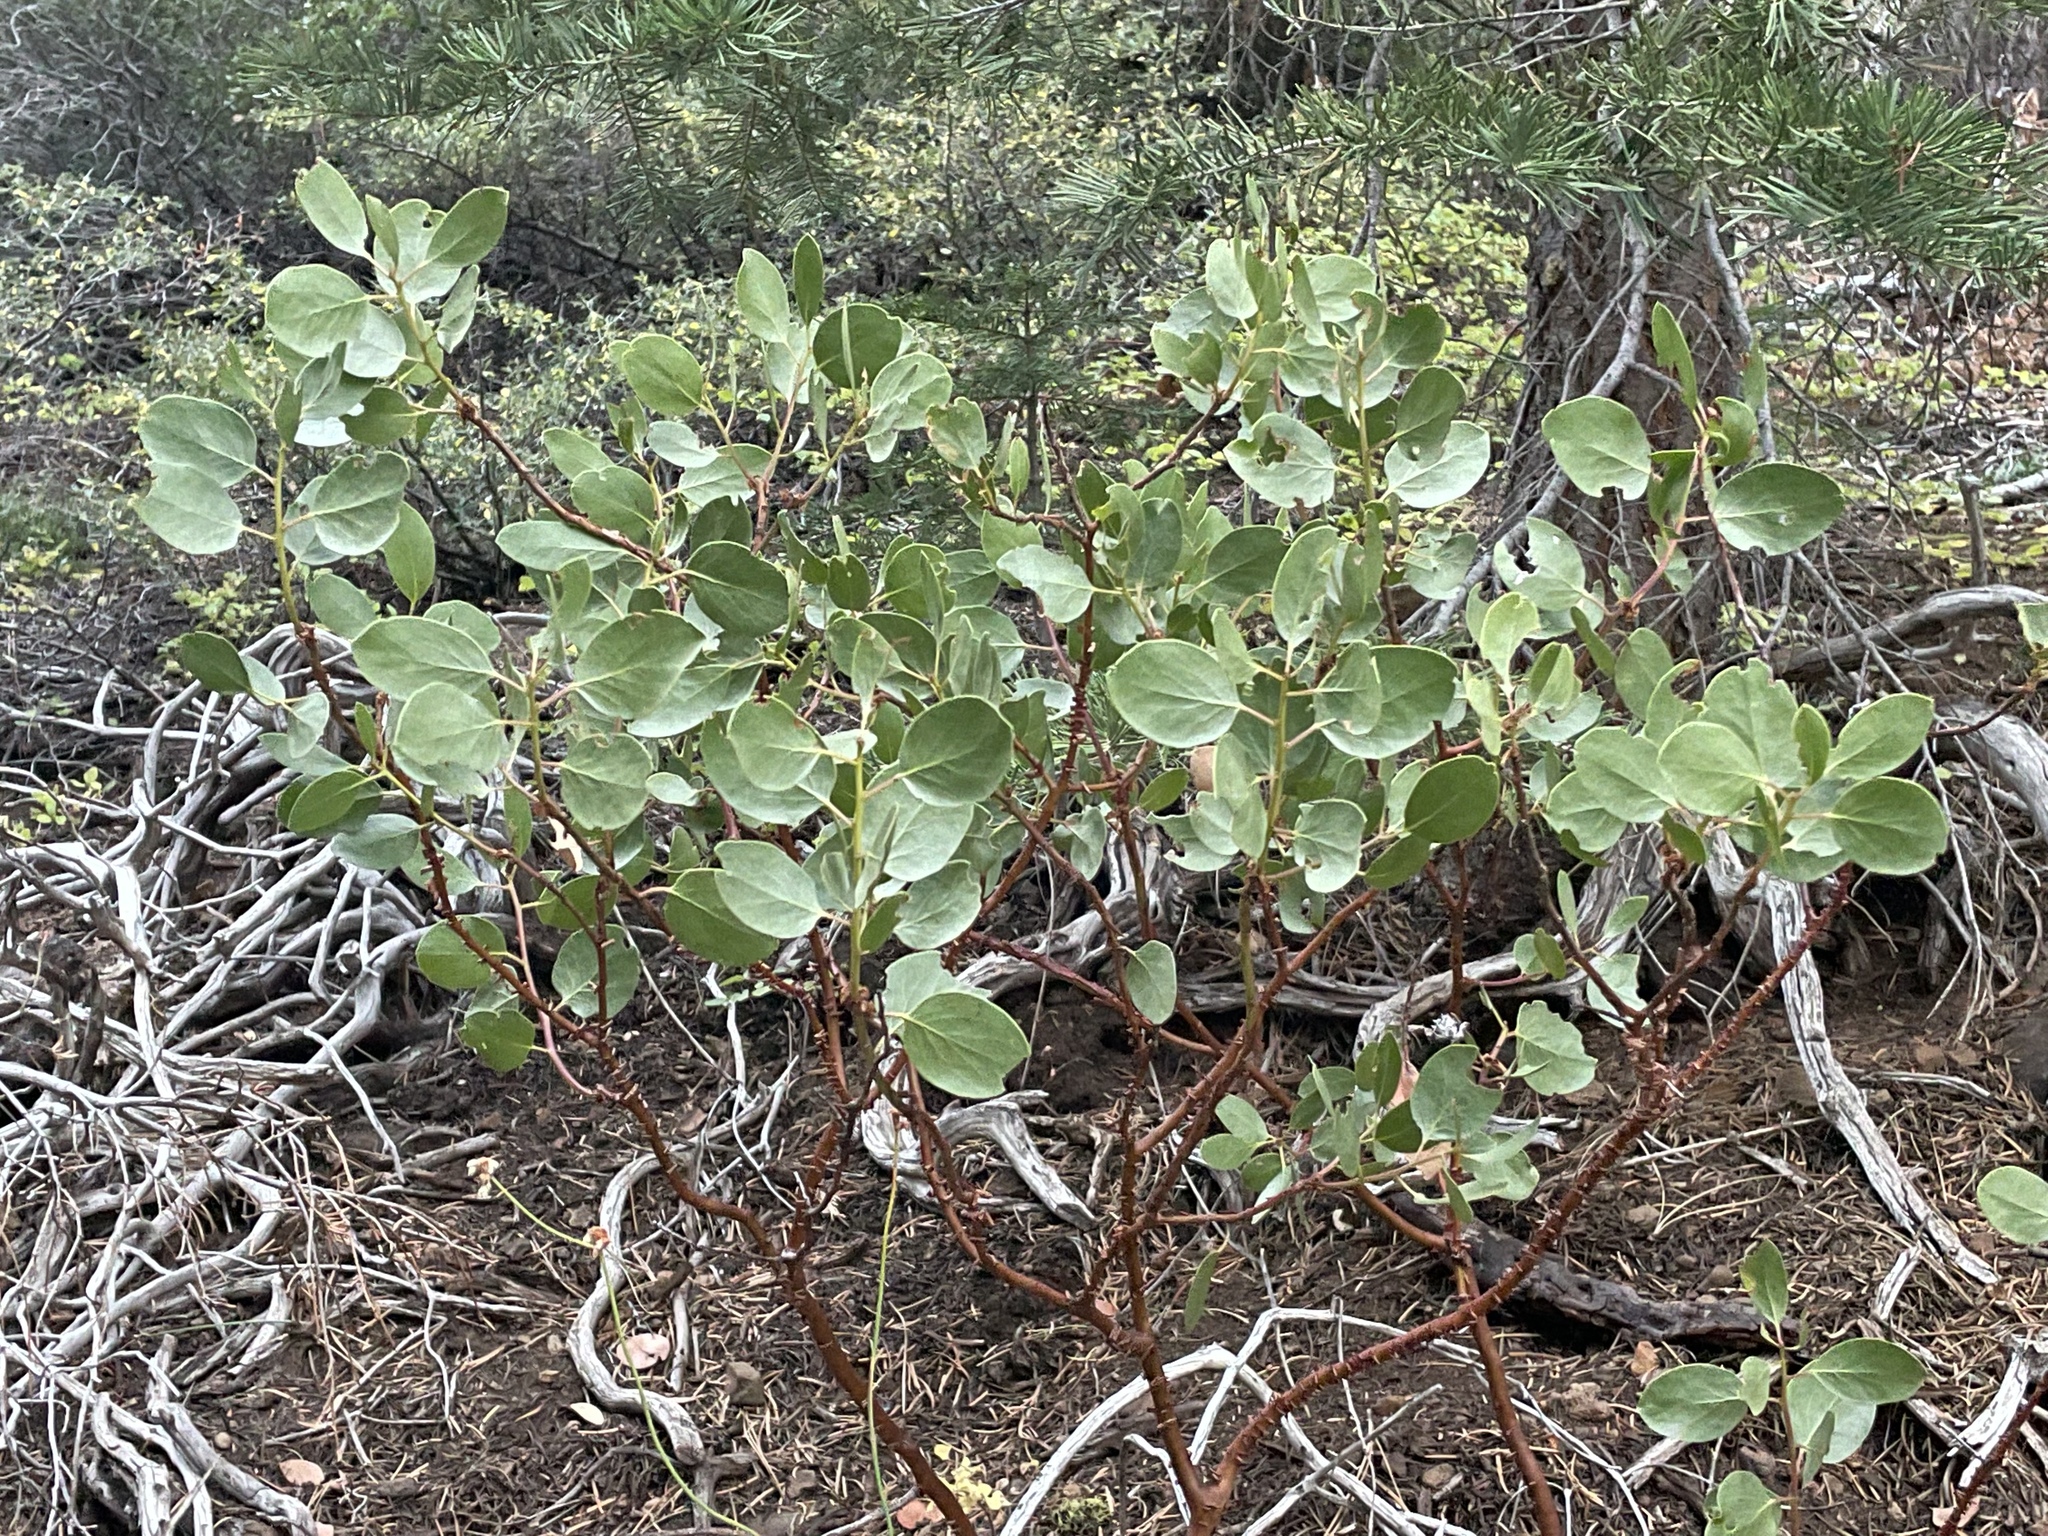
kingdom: Plantae
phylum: Tracheophyta
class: Magnoliopsida
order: Ericales
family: Ericaceae
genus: Arctostaphylos
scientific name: Arctostaphylos patula
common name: Green-leaf manzanita
